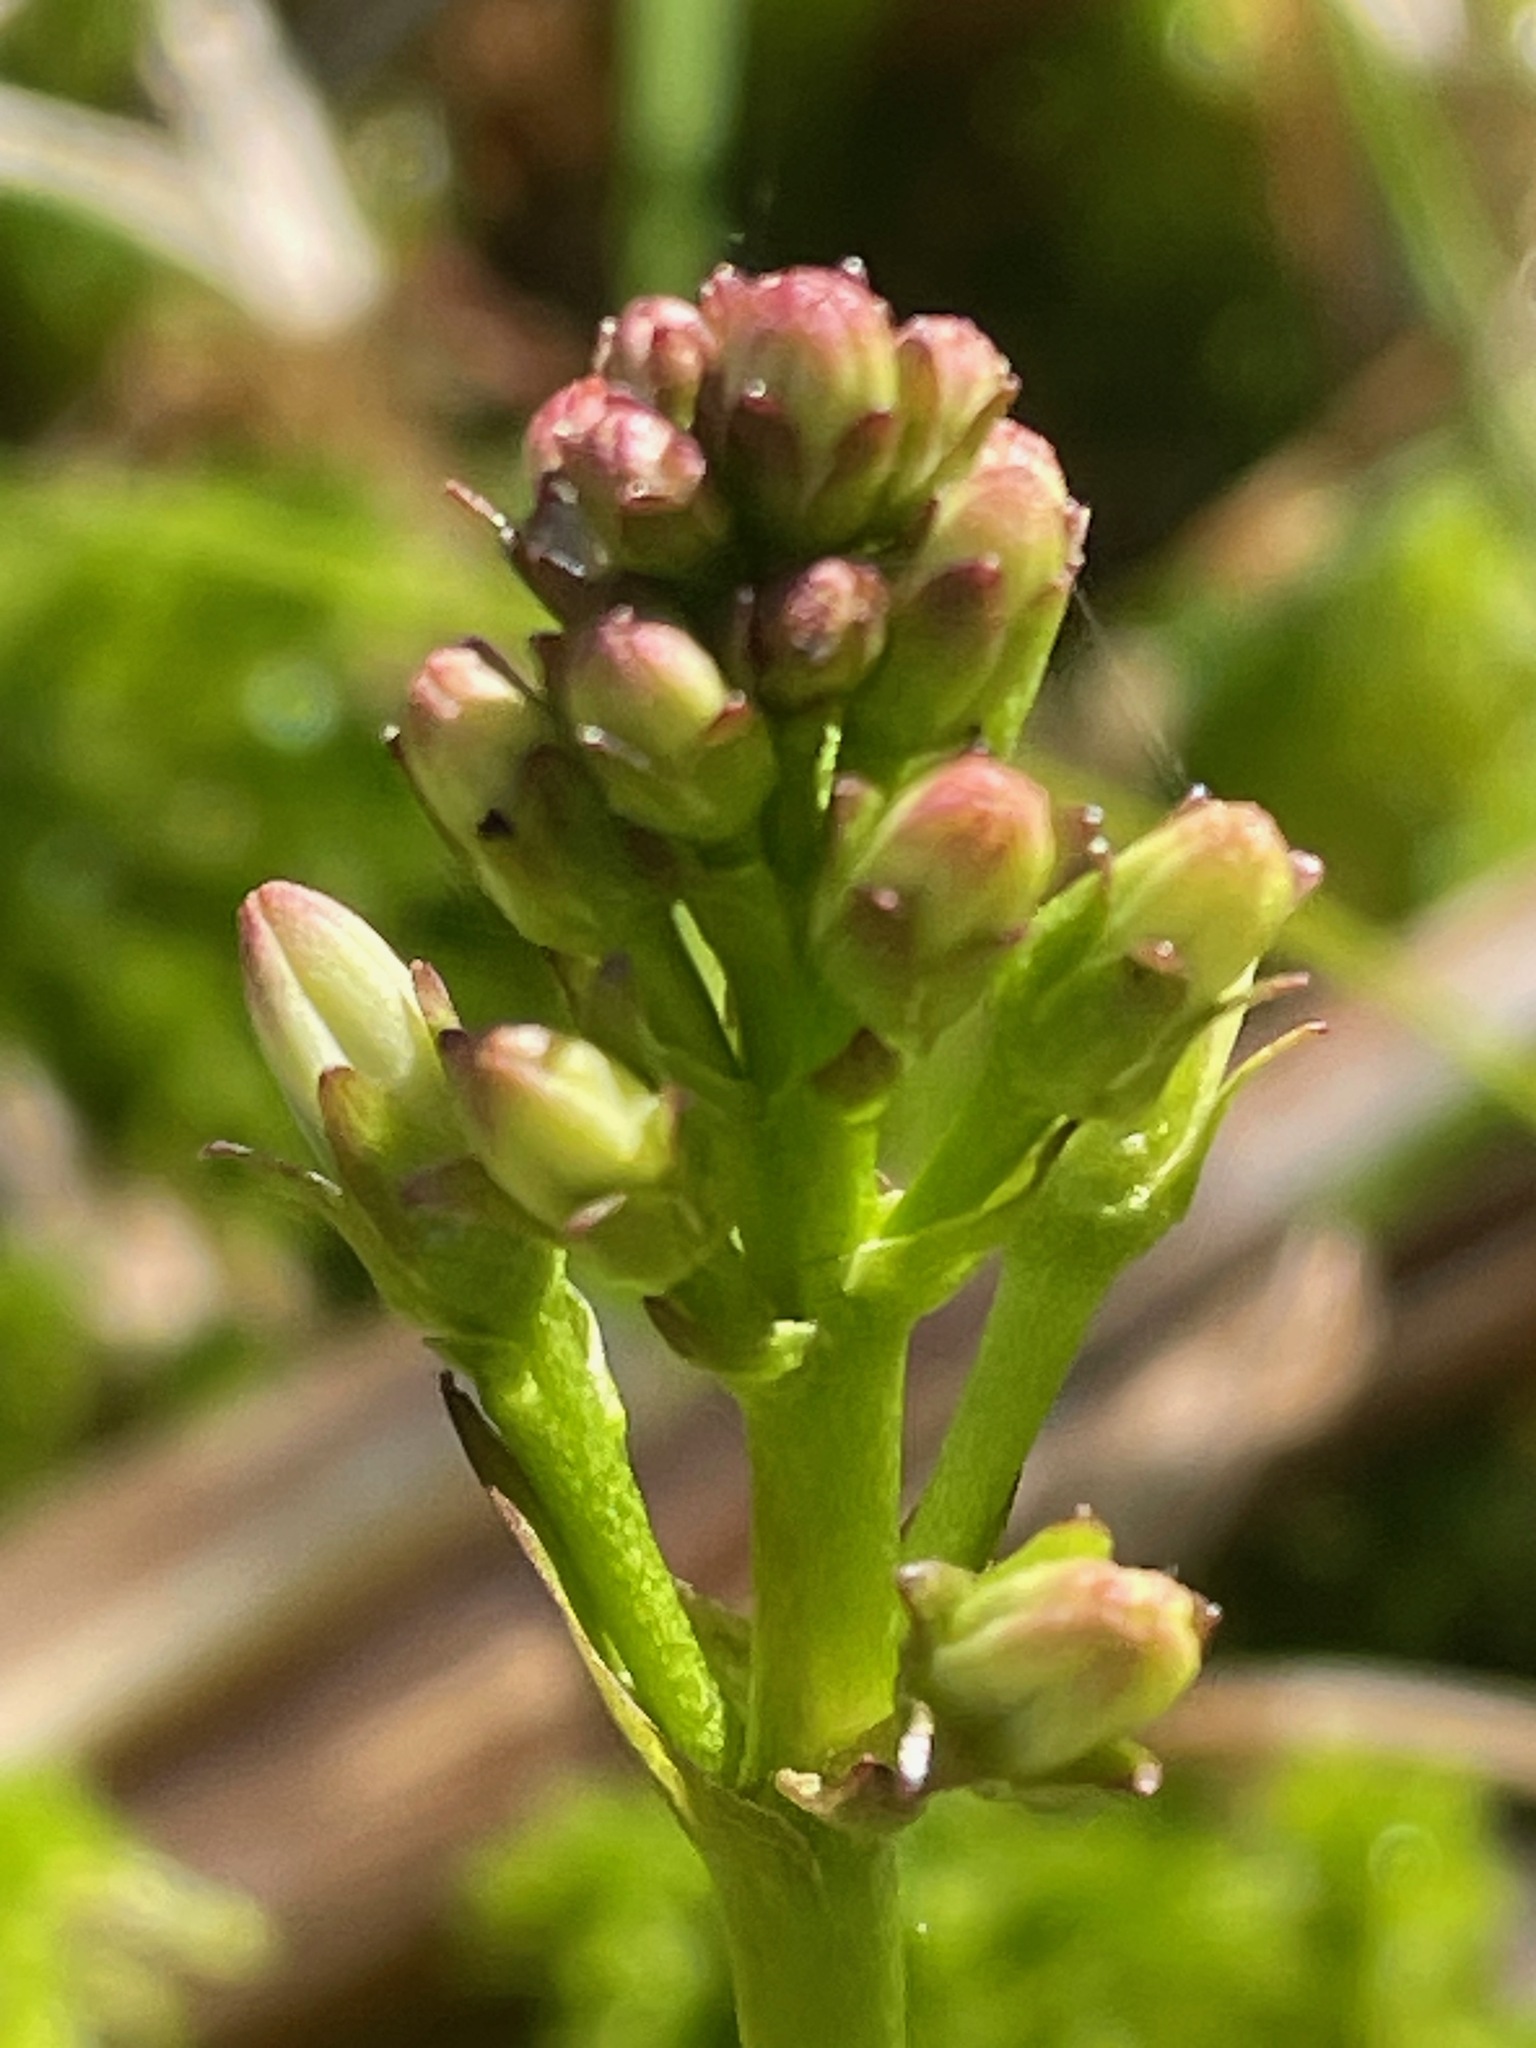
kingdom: Plantae
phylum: Tracheophyta
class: Magnoliopsida
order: Asterales
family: Menyanthaceae
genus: Menyanthes
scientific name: Menyanthes trifoliata
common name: Bogbean
